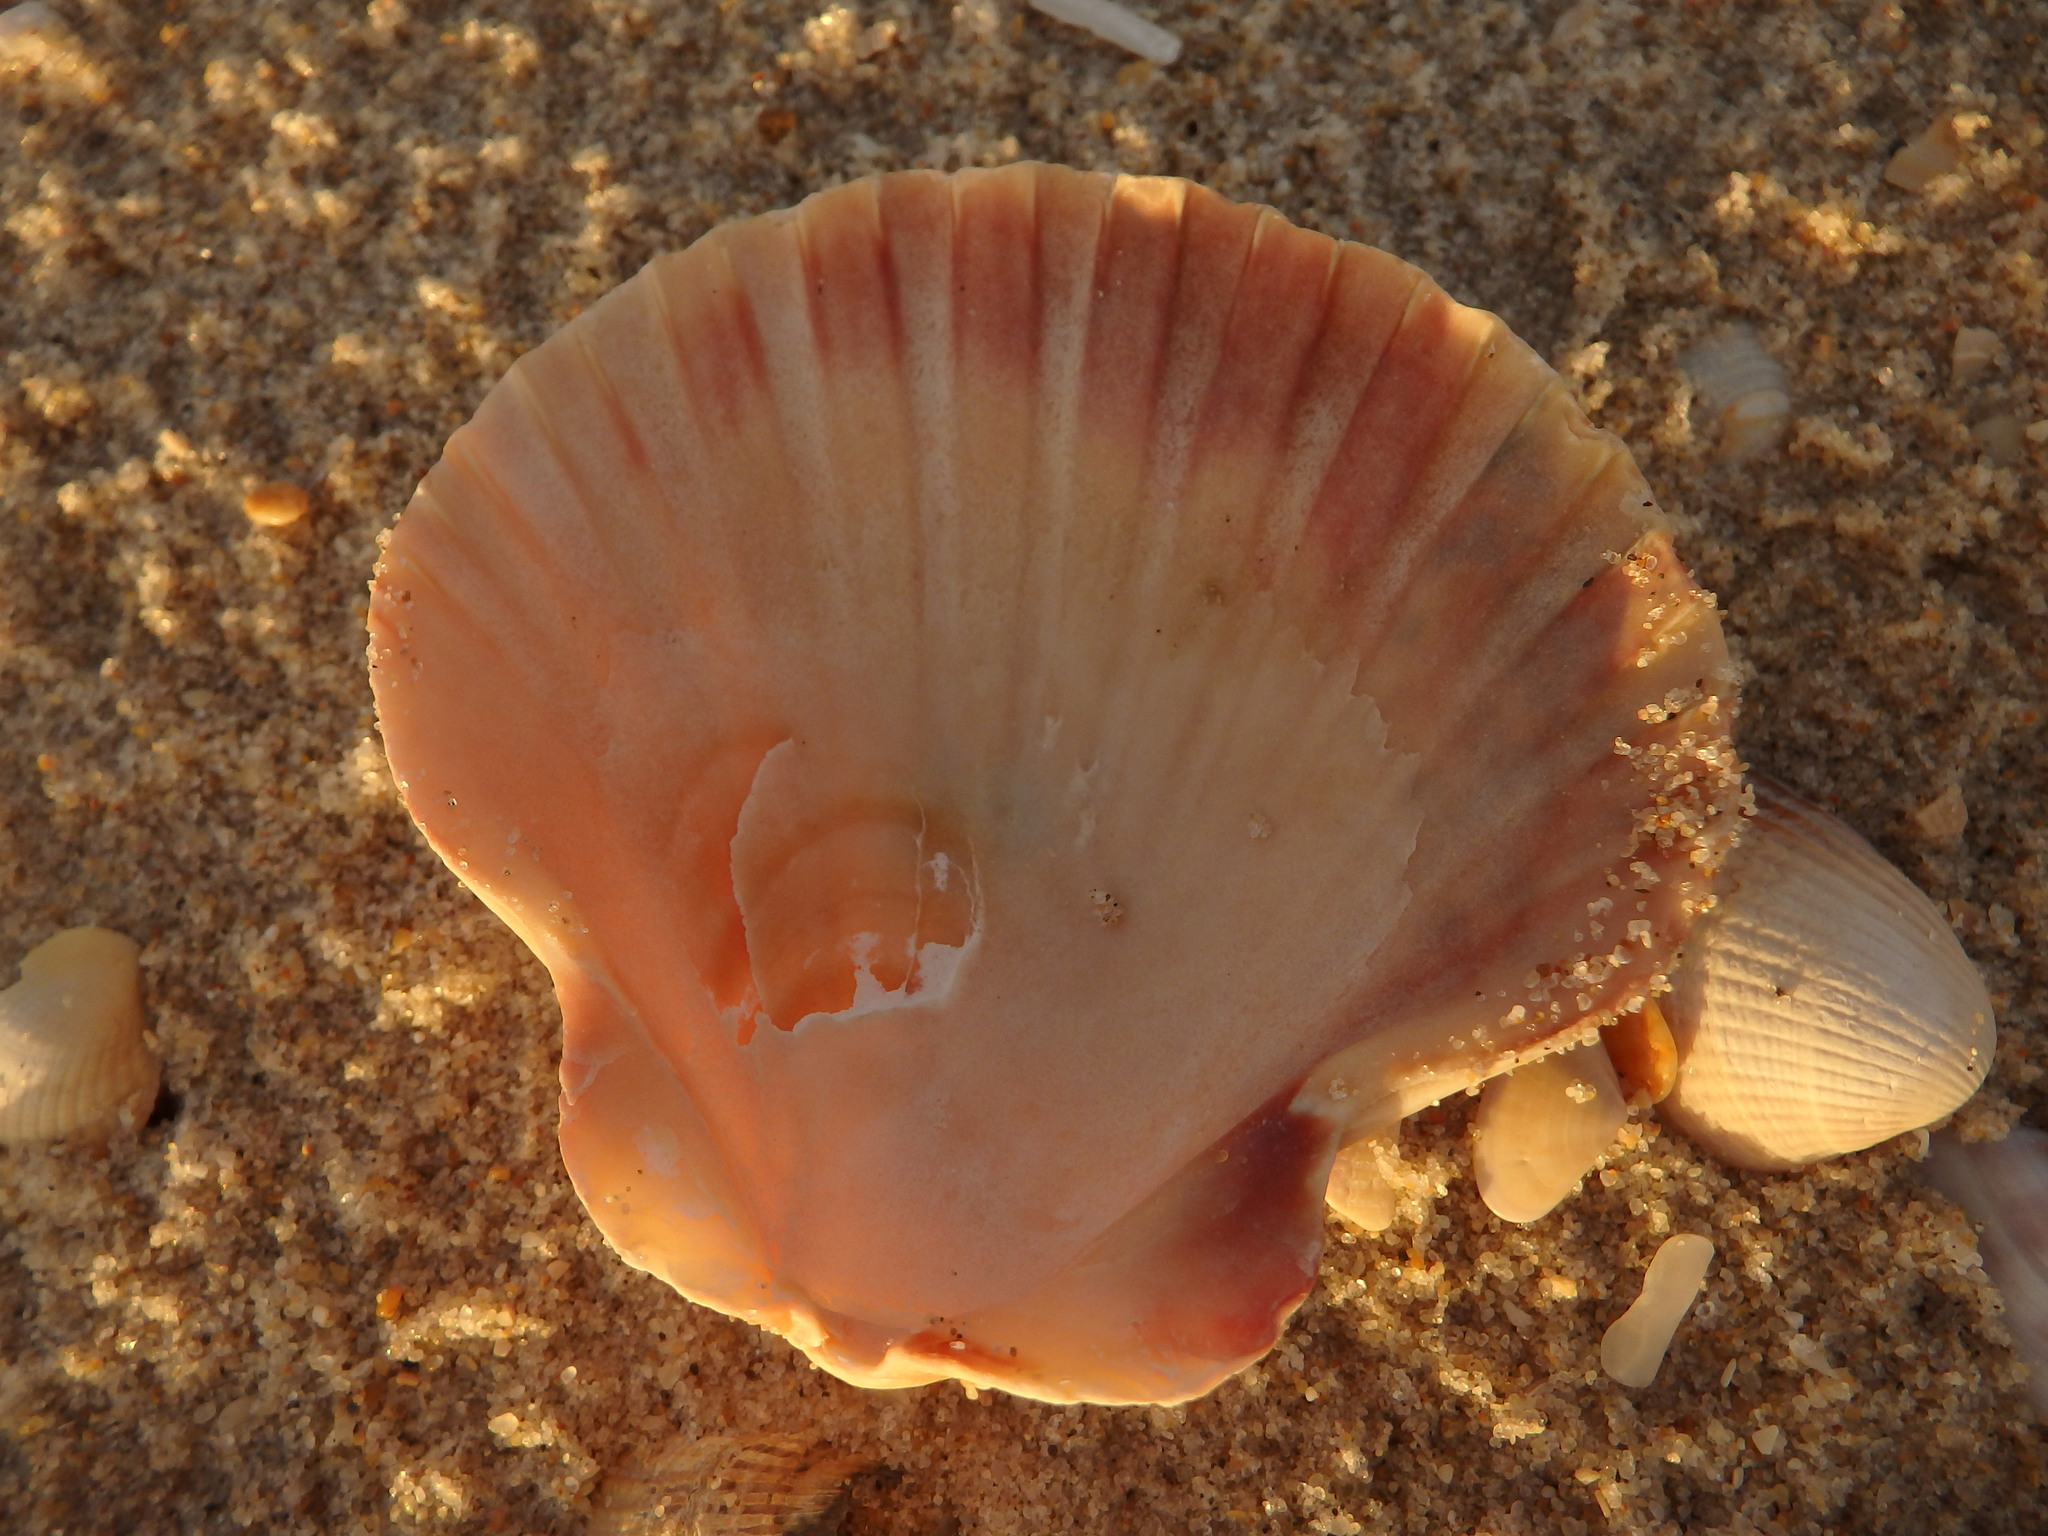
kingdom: Animalia
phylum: Mollusca
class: Bivalvia
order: Pectinida
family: Pectinidae
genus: Pecten
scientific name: Pecten maximus
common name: Great scallop
